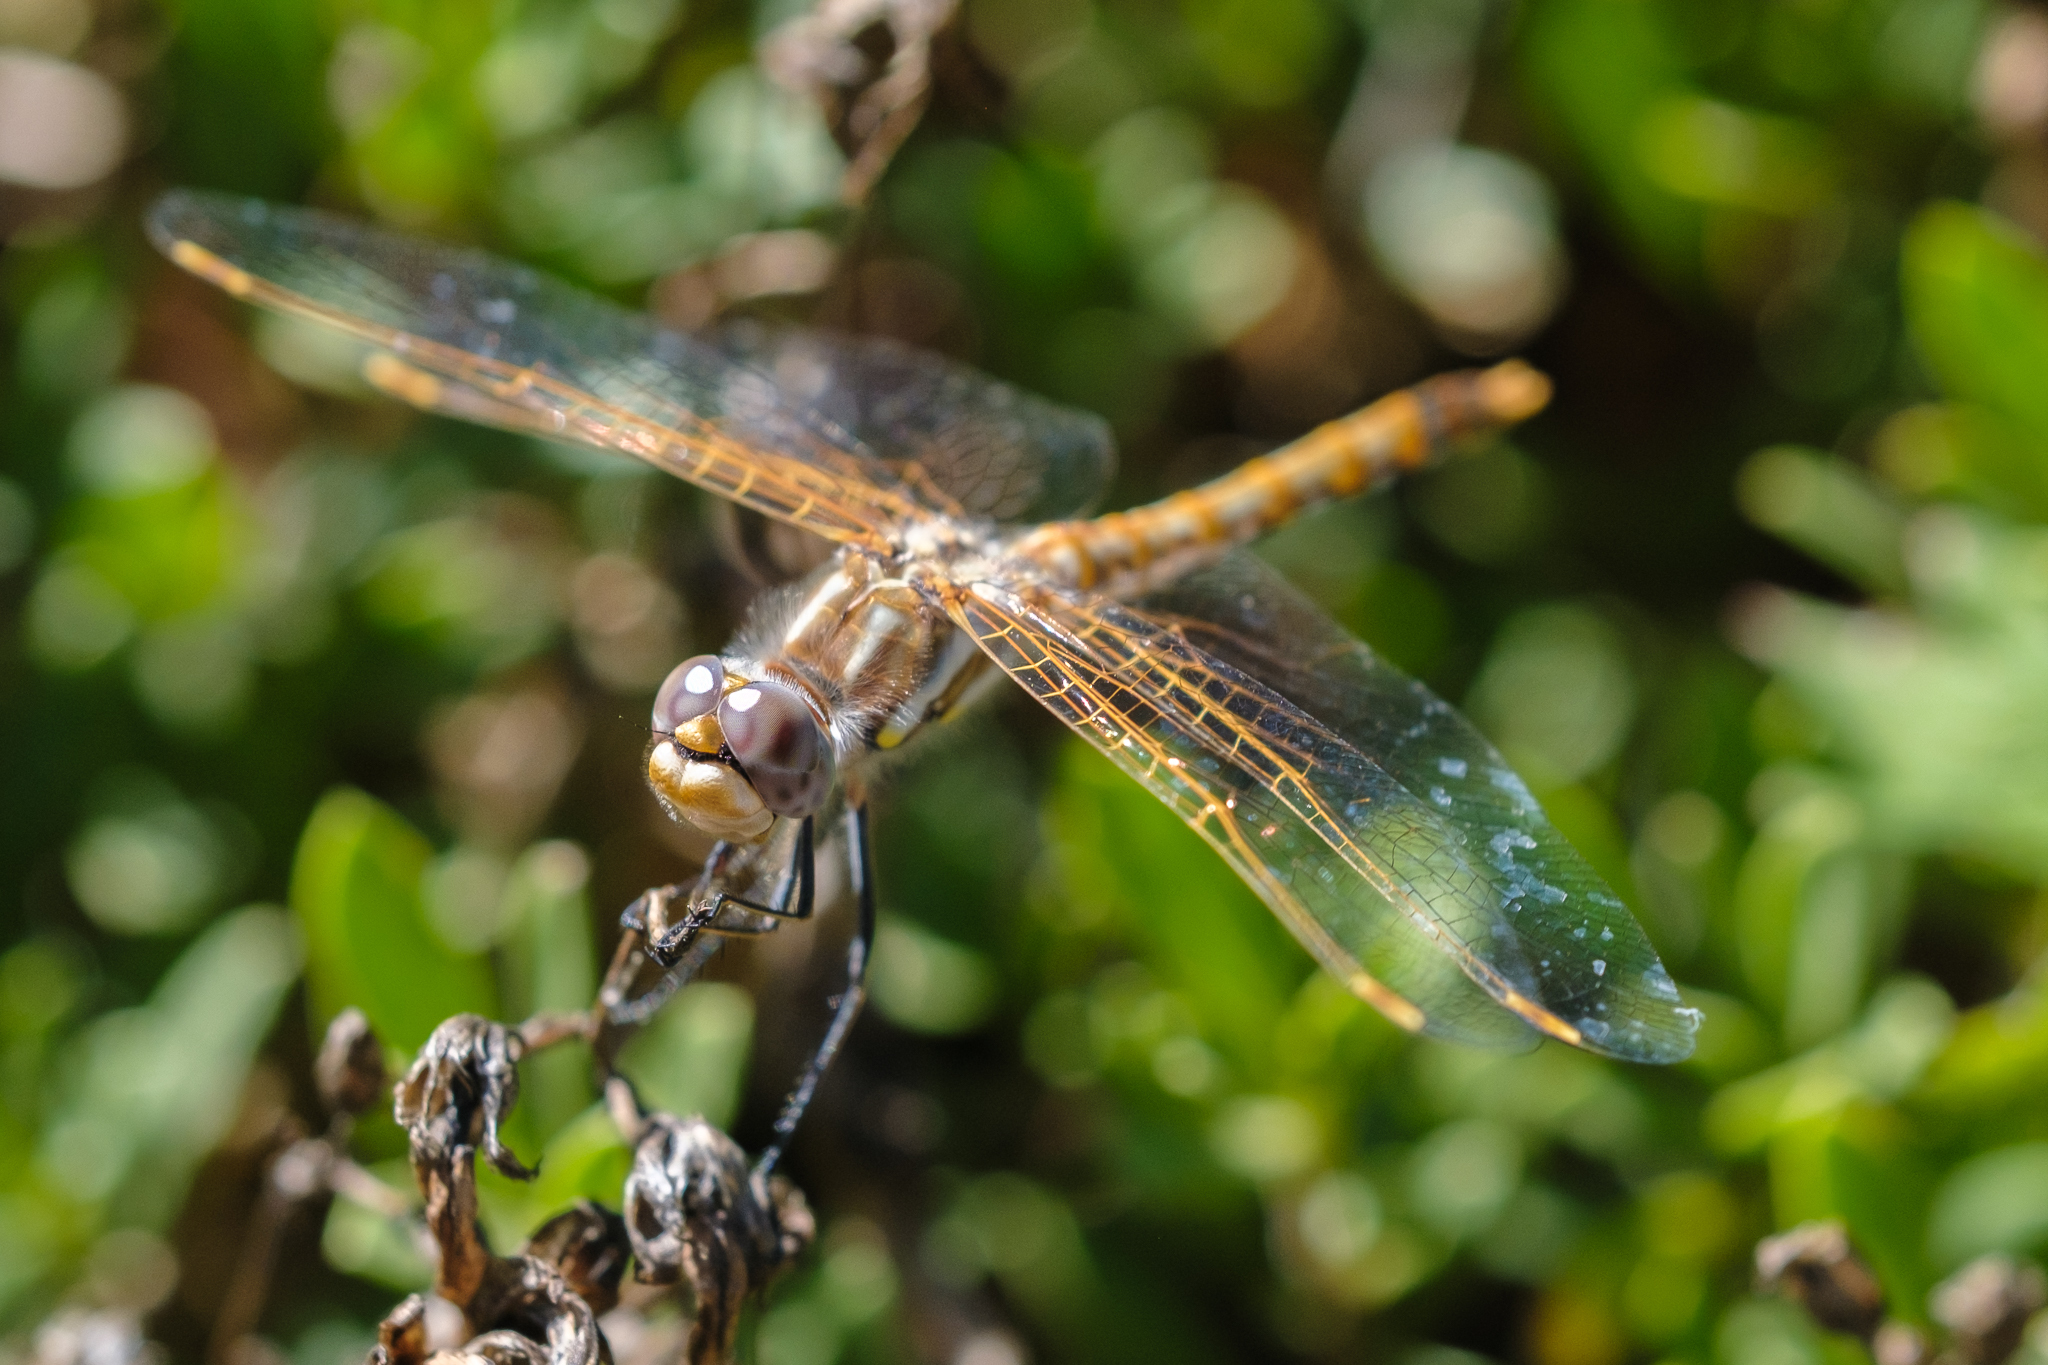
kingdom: Animalia
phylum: Arthropoda
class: Insecta
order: Odonata
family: Libellulidae
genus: Sympetrum
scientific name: Sympetrum corruptum
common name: Variegated meadowhawk
